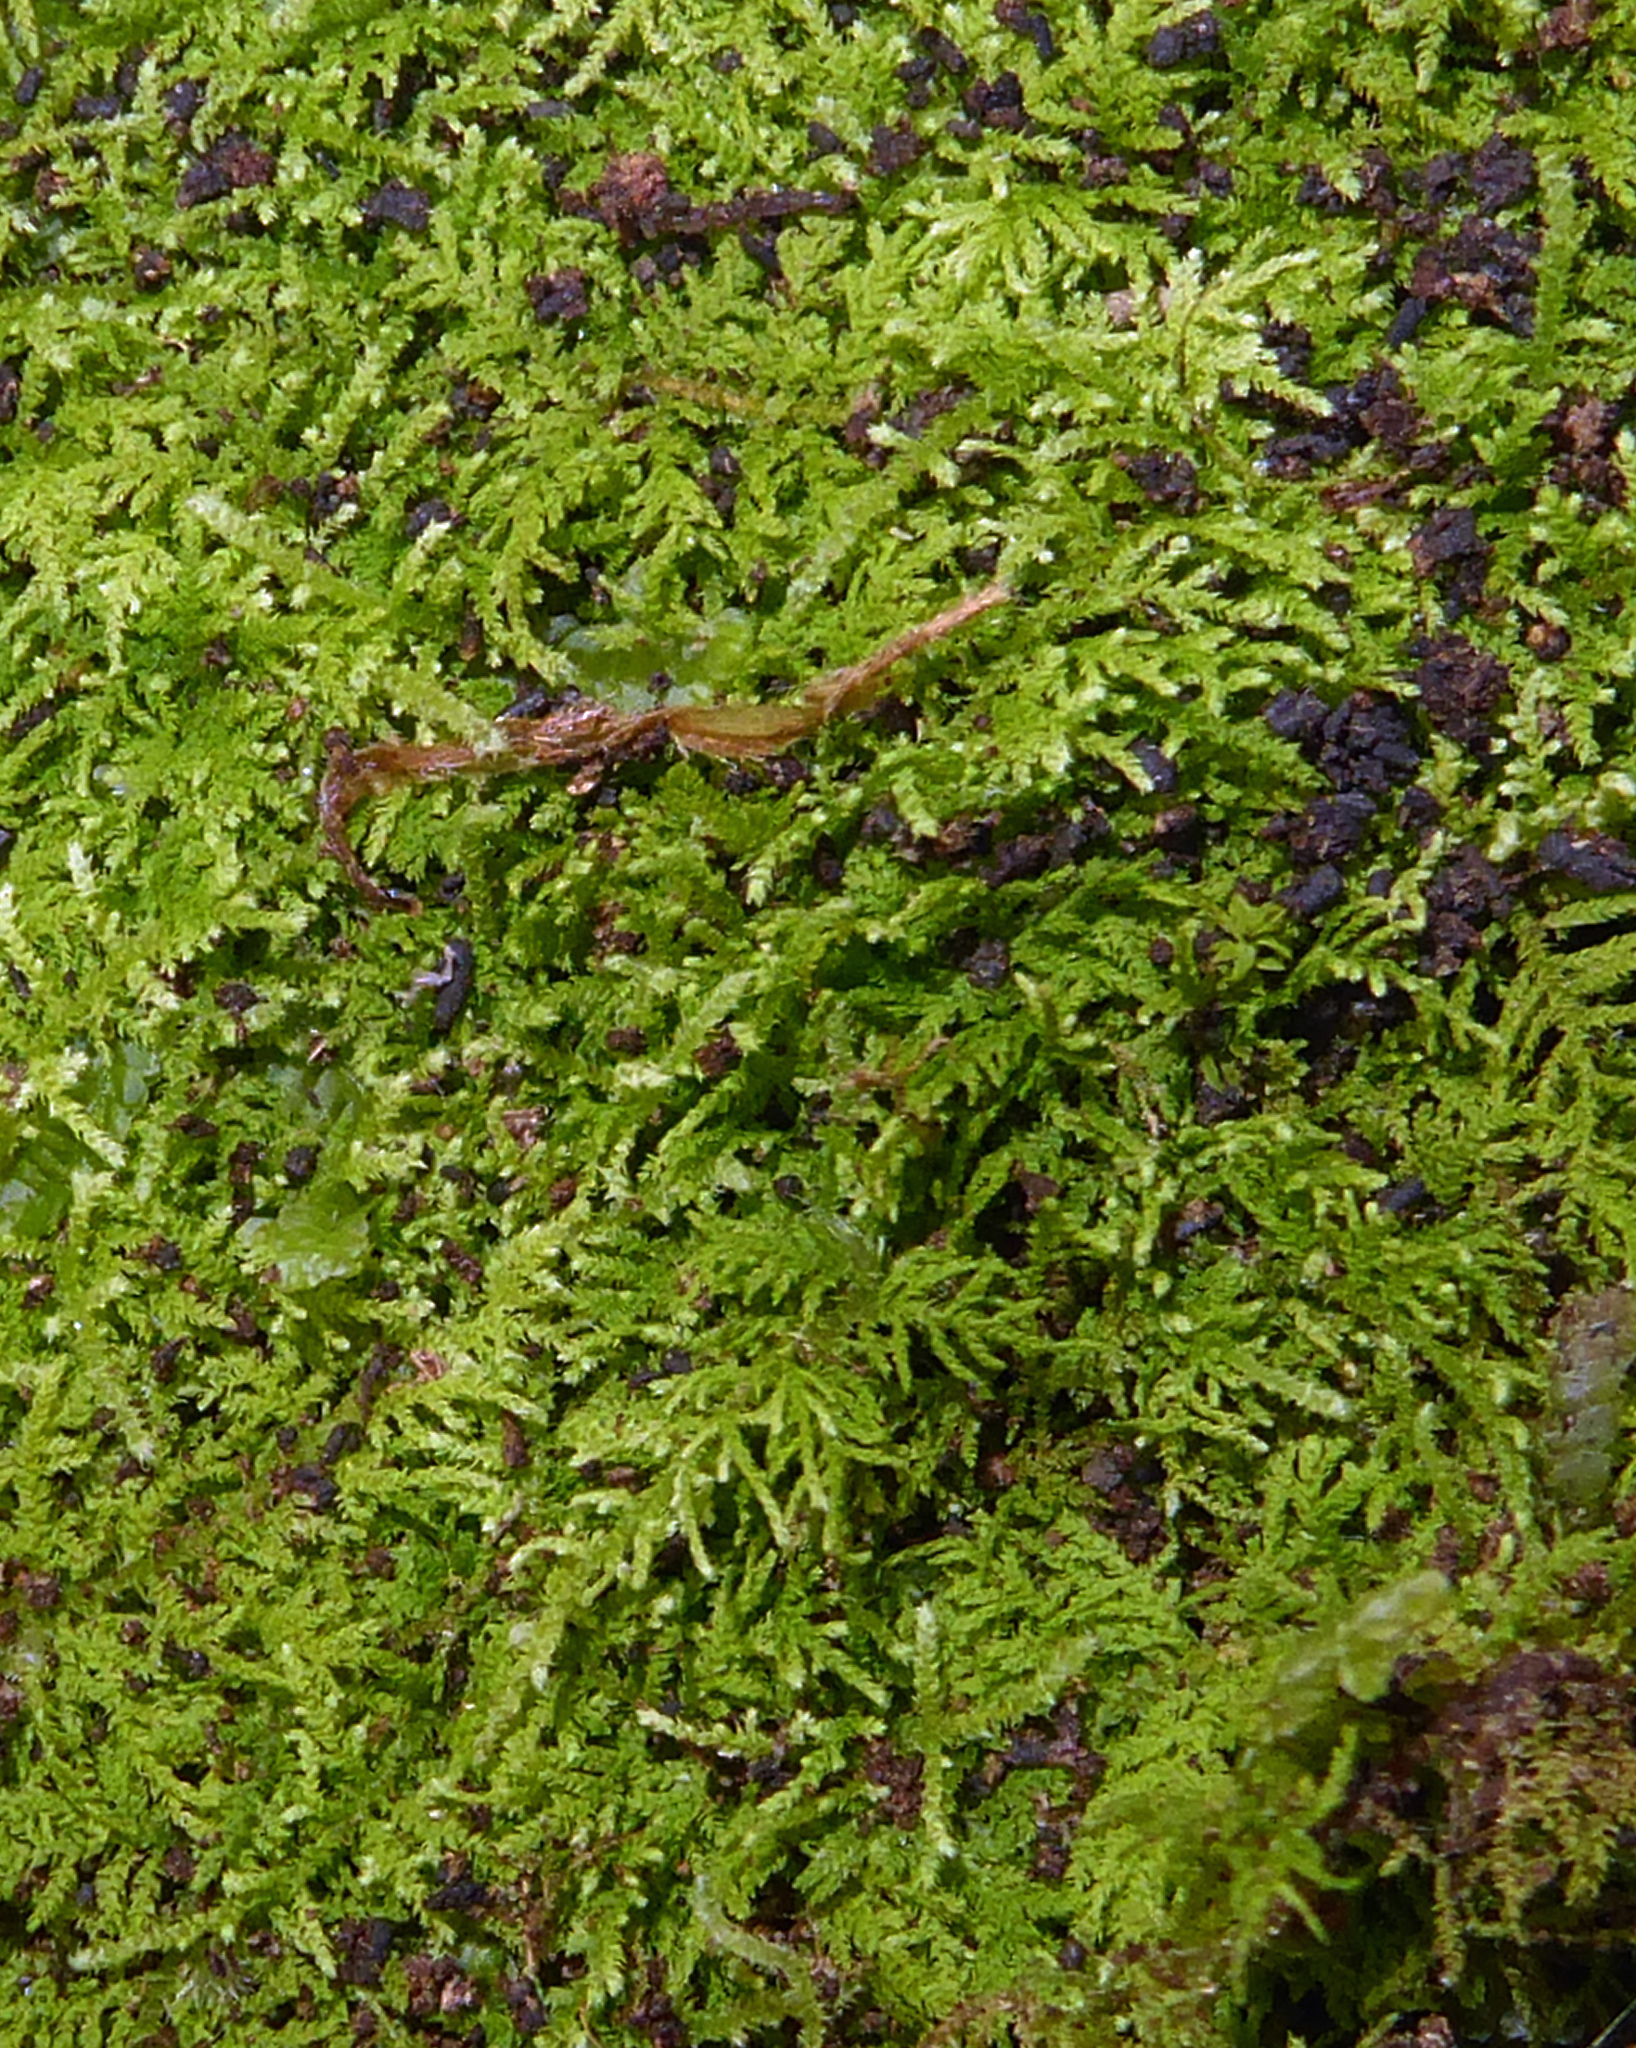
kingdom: Plantae
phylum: Bryophyta
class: Bryopsida
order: Hypnales
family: Thuidiaceae
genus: Thuidiopsis
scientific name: Thuidiopsis sparsa
